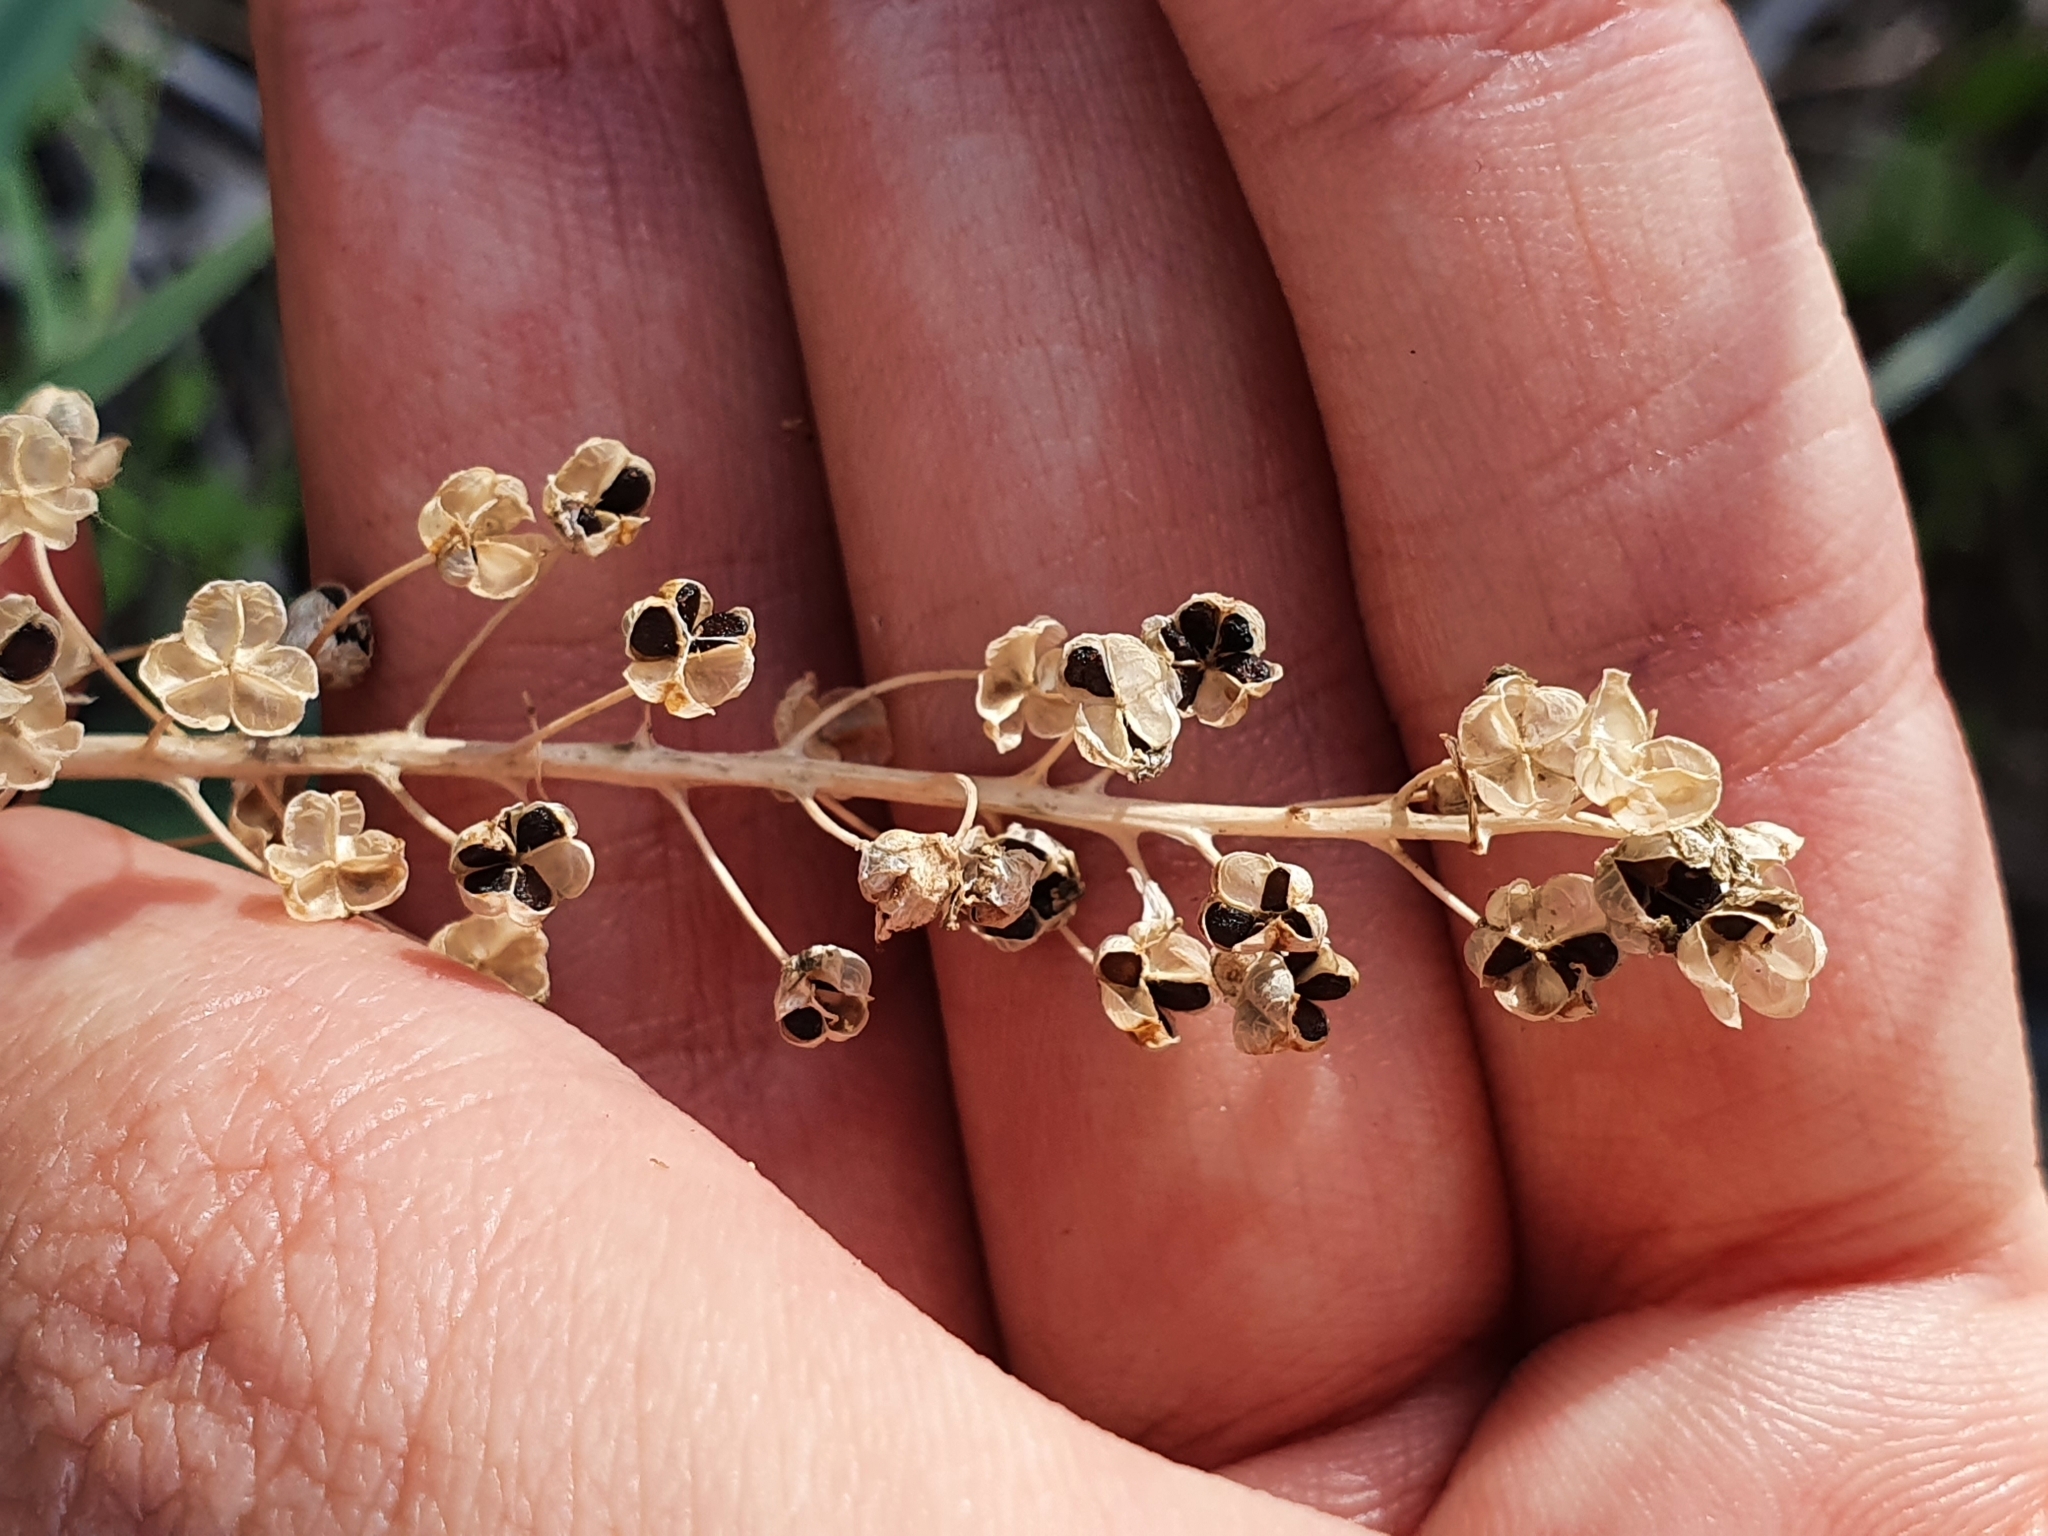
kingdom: Plantae
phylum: Tracheophyta
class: Liliopsida
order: Asparagales
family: Asparagaceae
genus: Prospero
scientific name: Prospero obtusifolium
